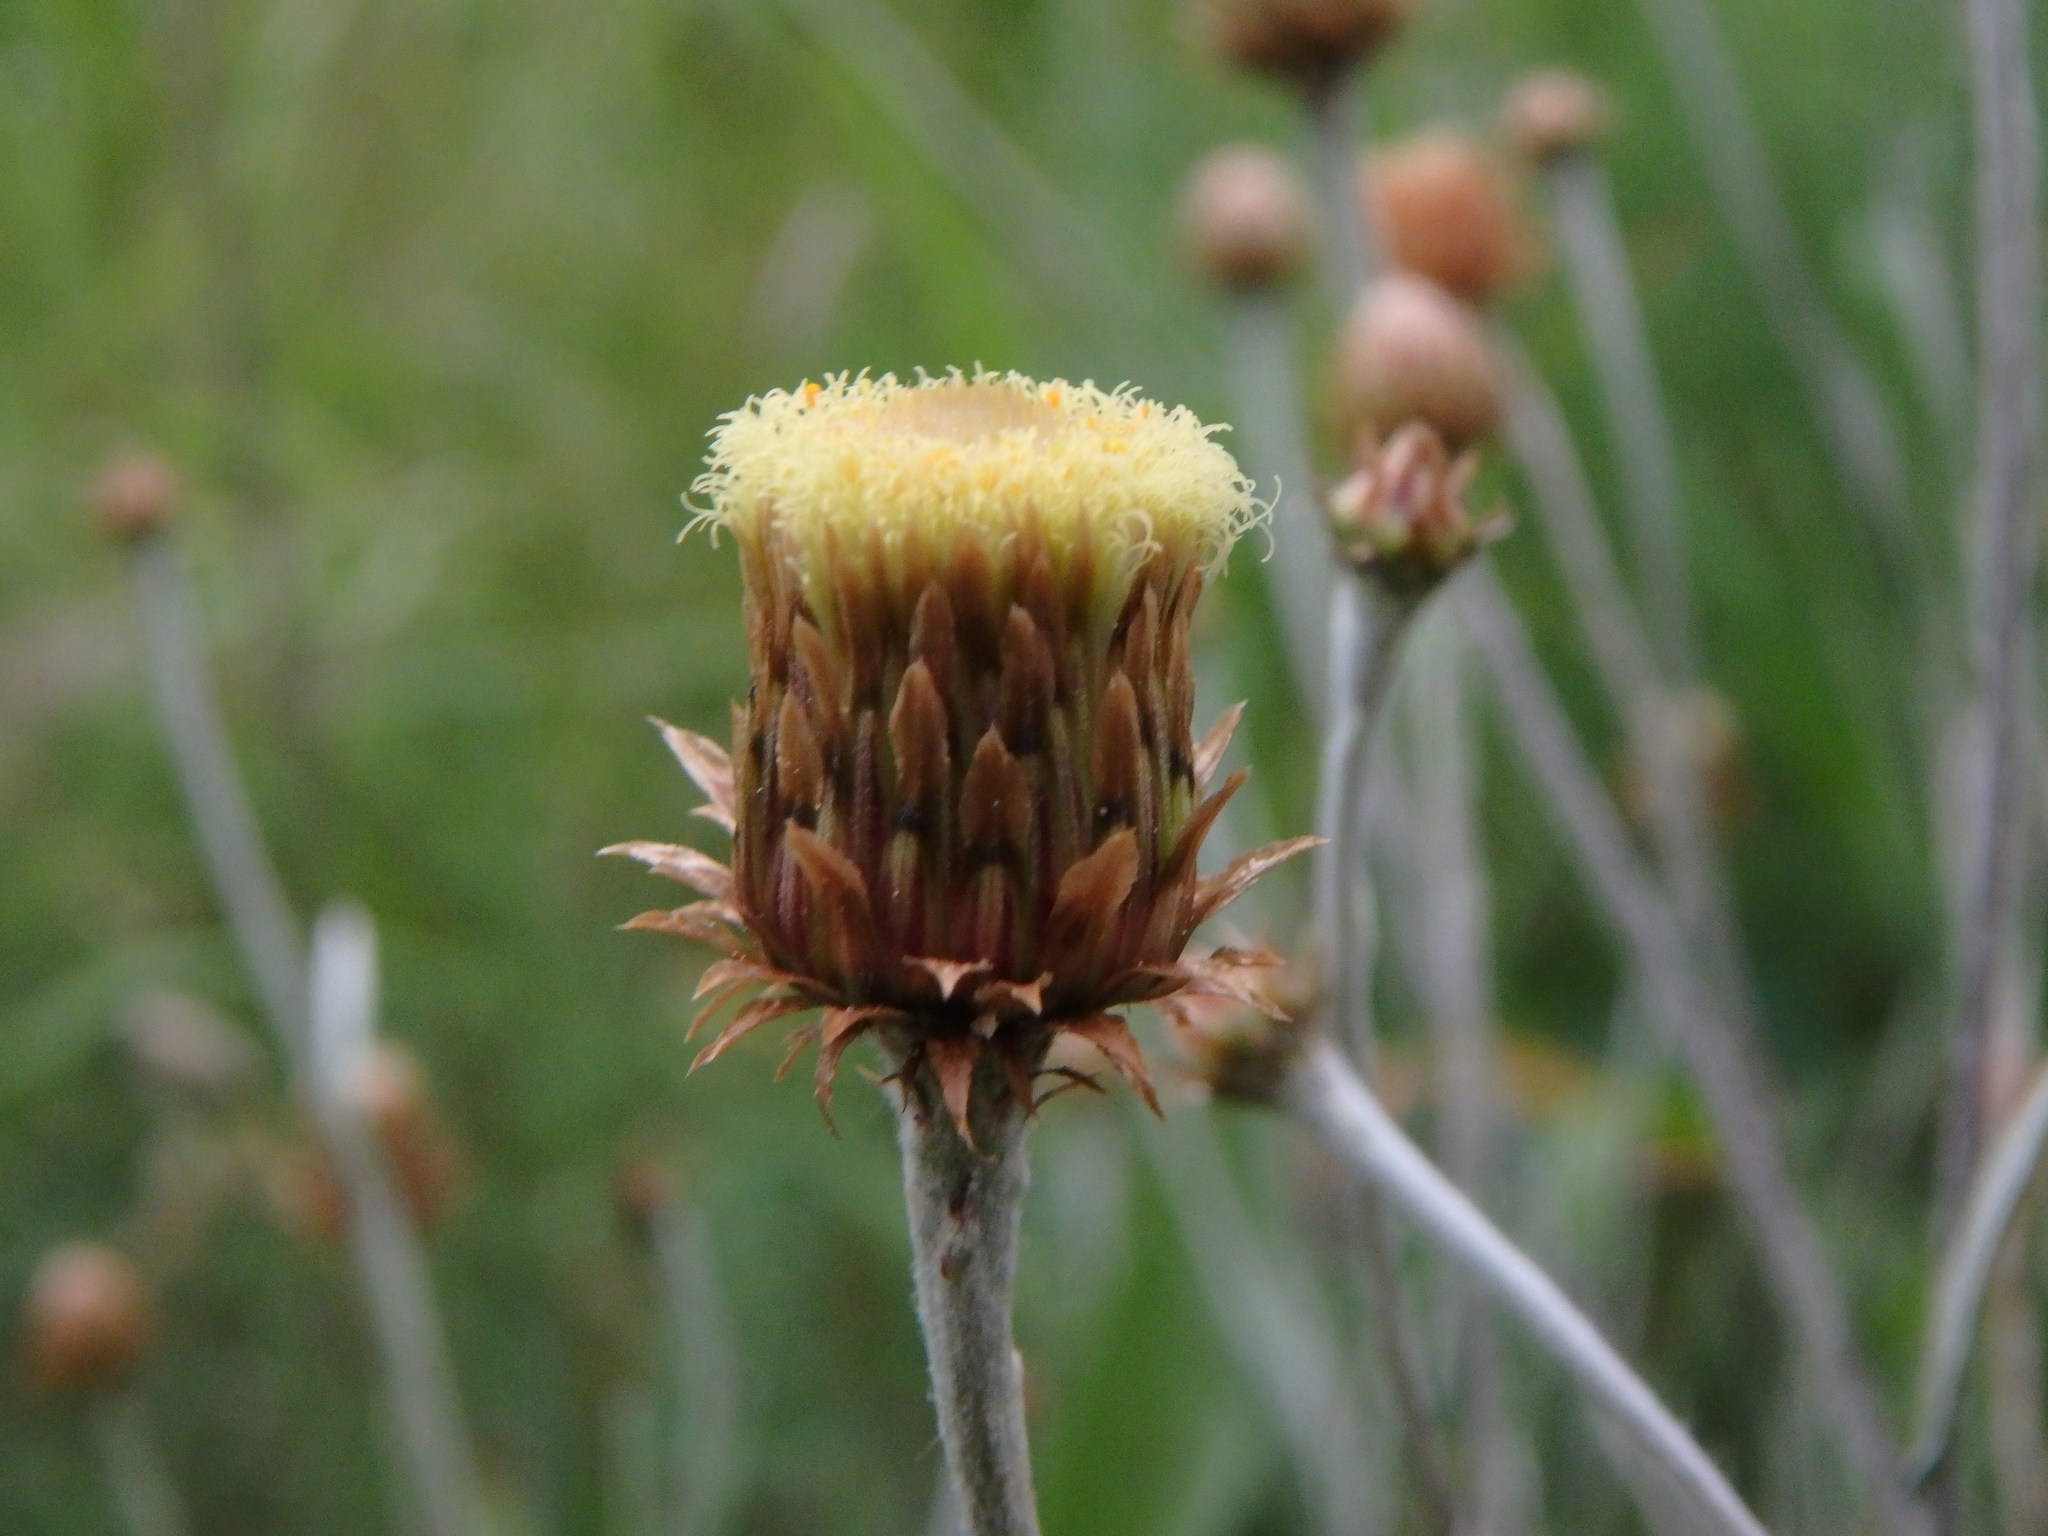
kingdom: Plantae
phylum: Tracheophyta
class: Magnoliopsida
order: Asterales
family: Asteraceae
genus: Phagnalon
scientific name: Phagnalon saxatile
